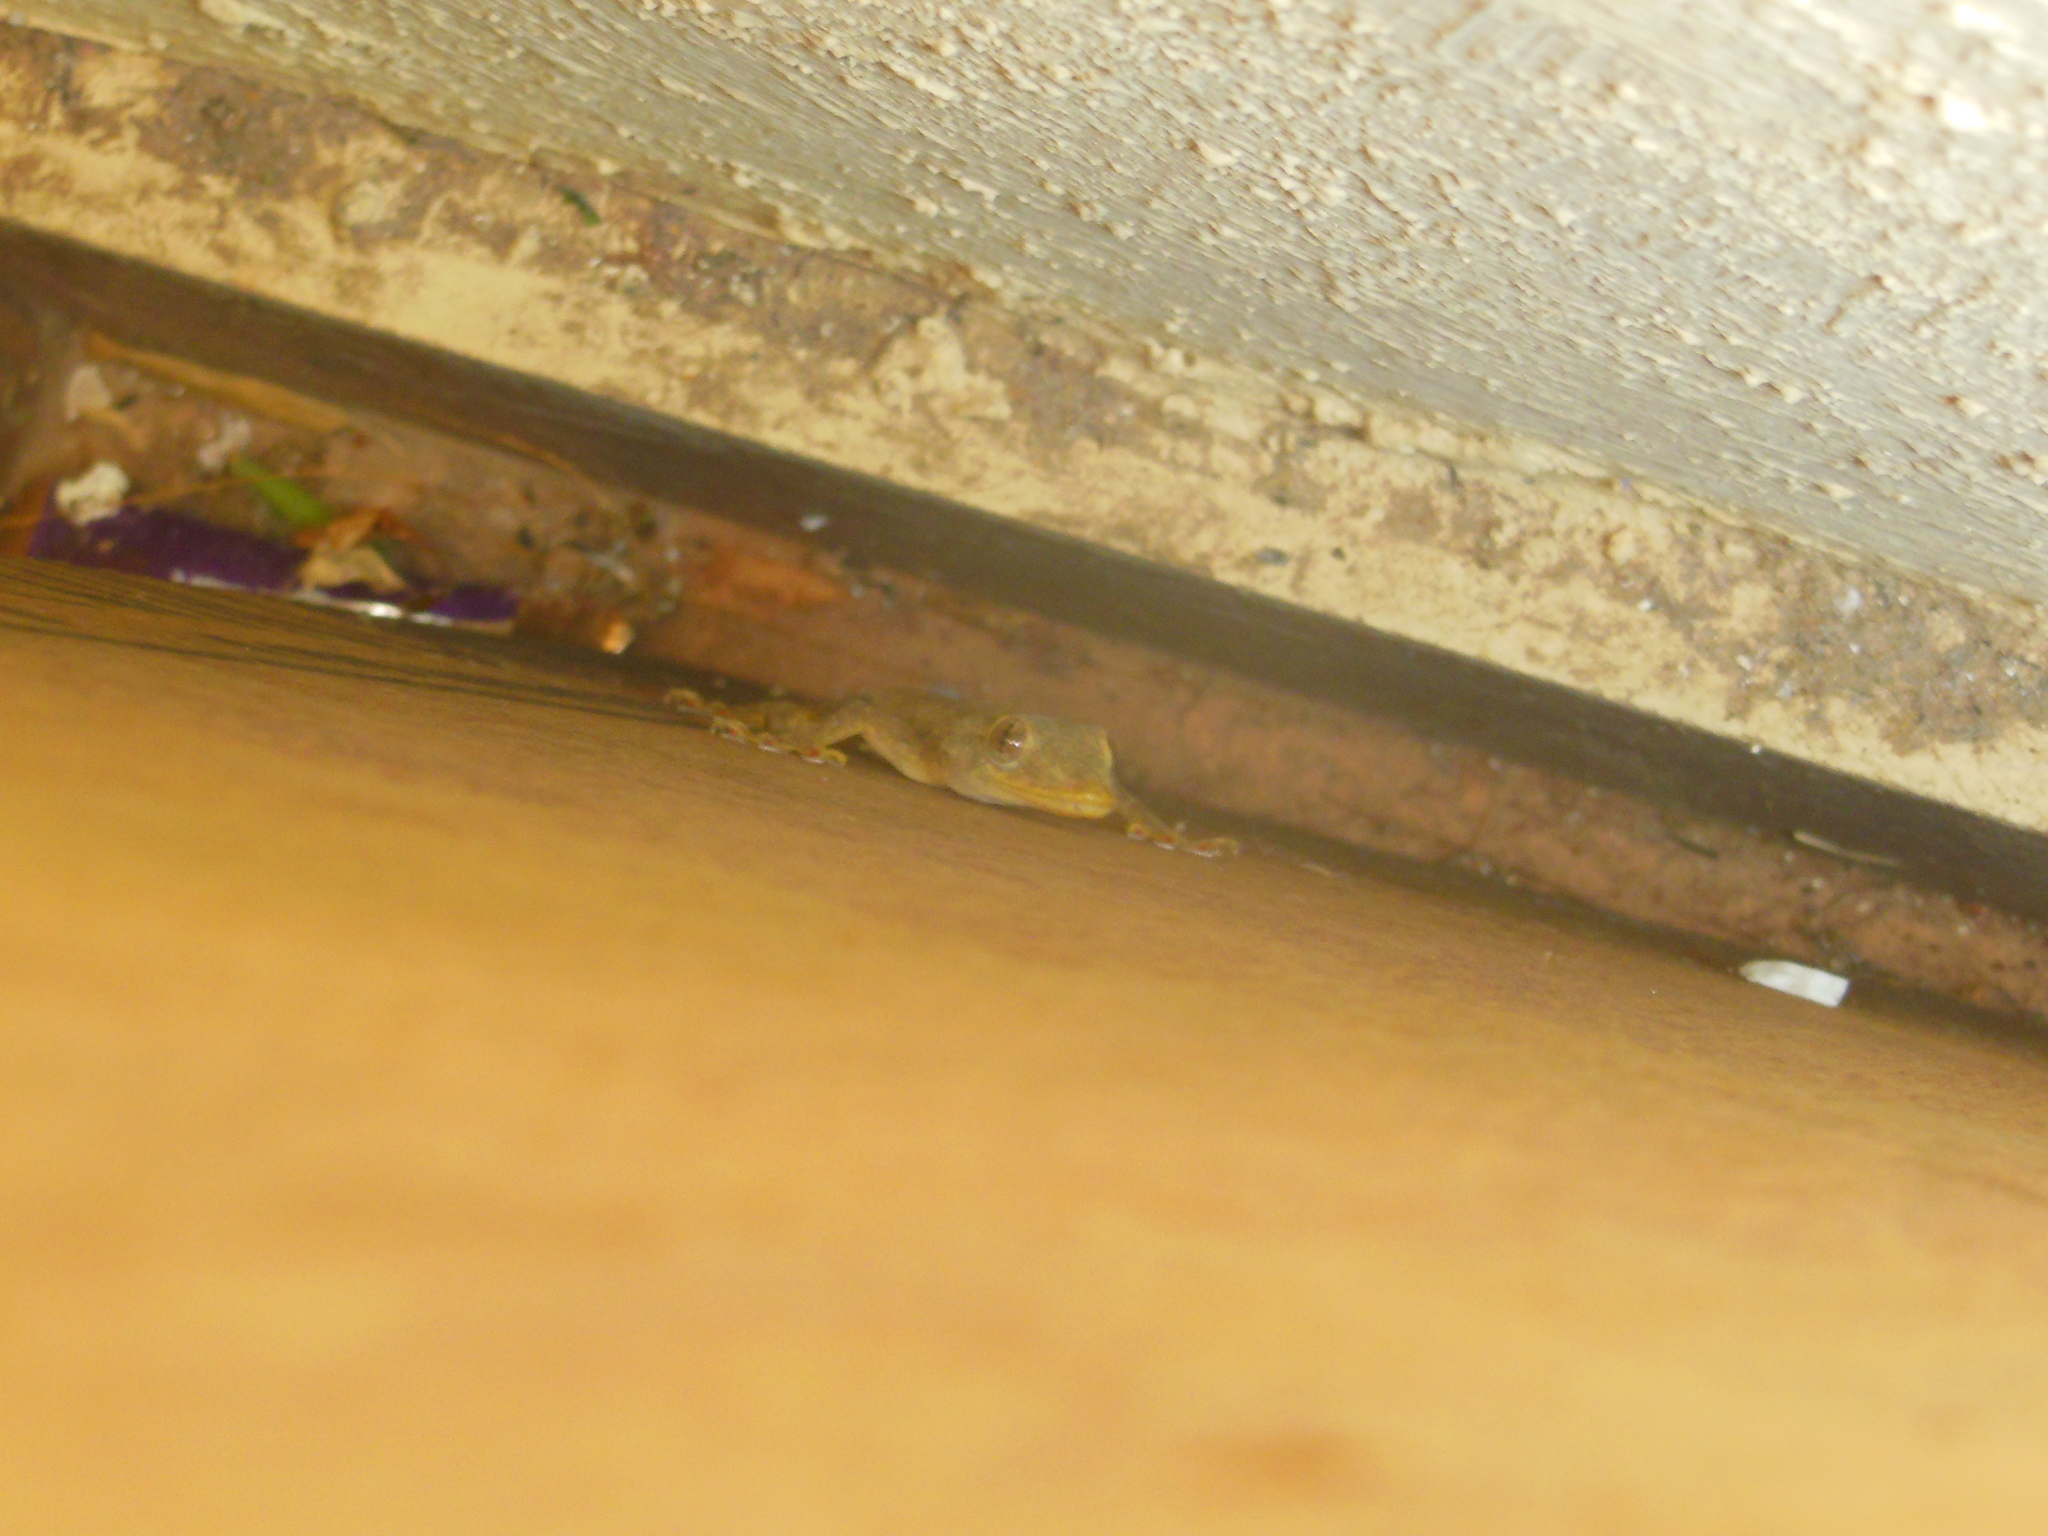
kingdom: Animalia
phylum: Chordata
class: Squamata
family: Gekkonidae
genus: Hemidactylus
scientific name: Hemidactylus flaviviridis
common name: Northern house gecko
